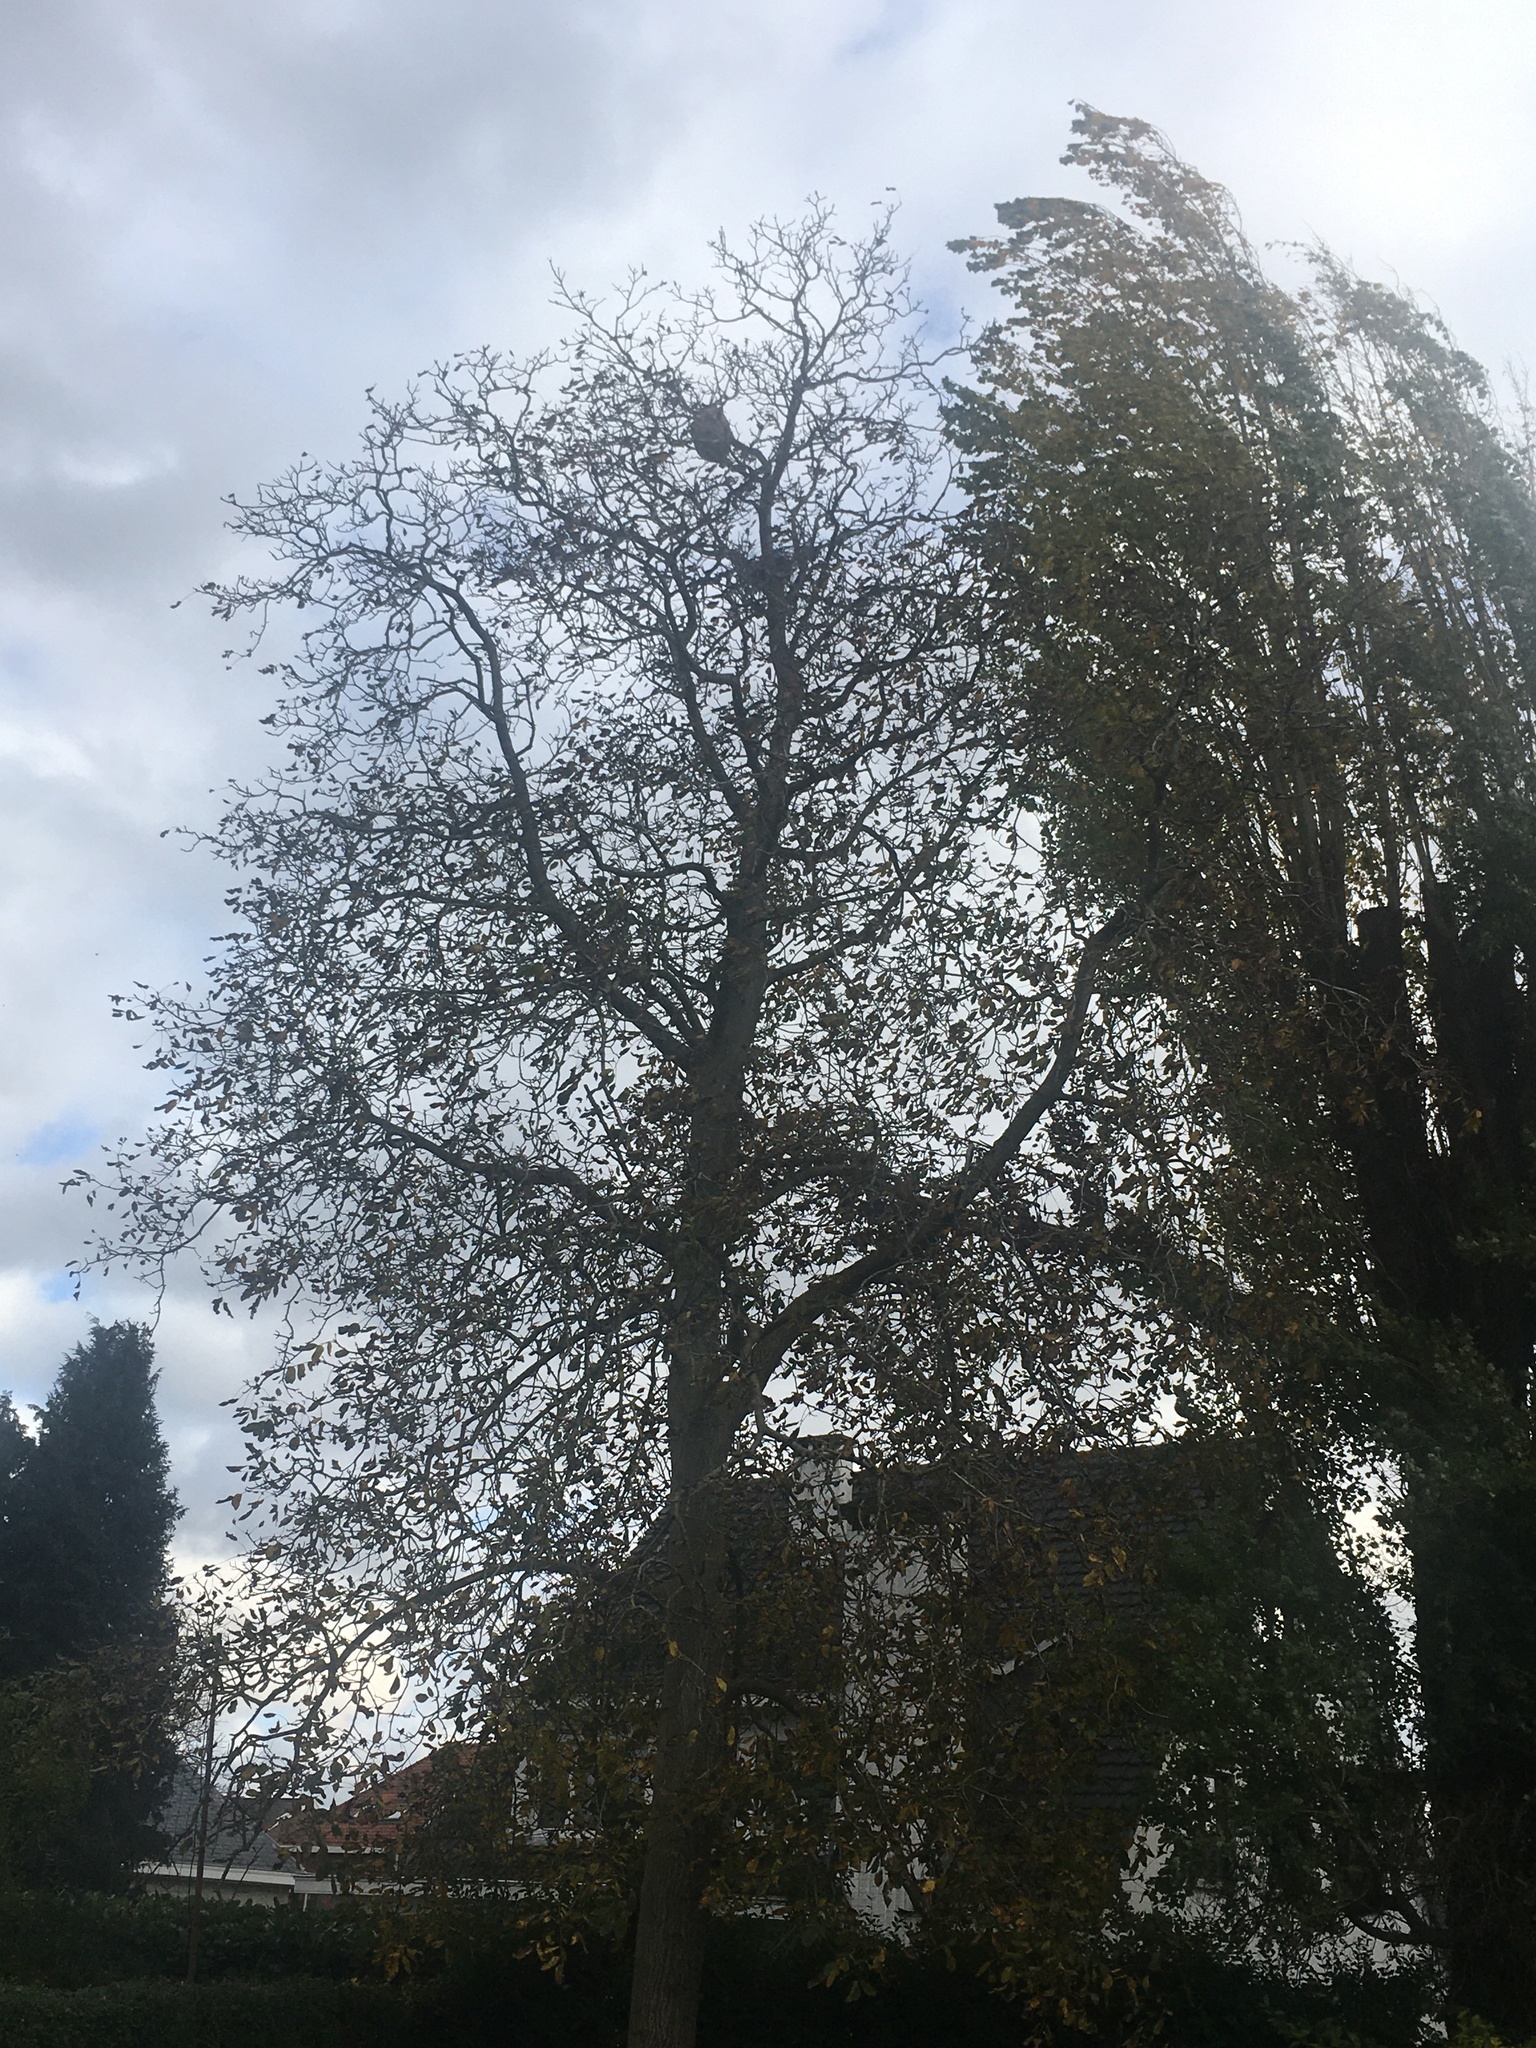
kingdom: Animalia
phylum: Arthropoda
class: Insecta
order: Hymenoptera
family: Vespidae
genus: Vespa
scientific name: Vespa velutina
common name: Asian hornet
